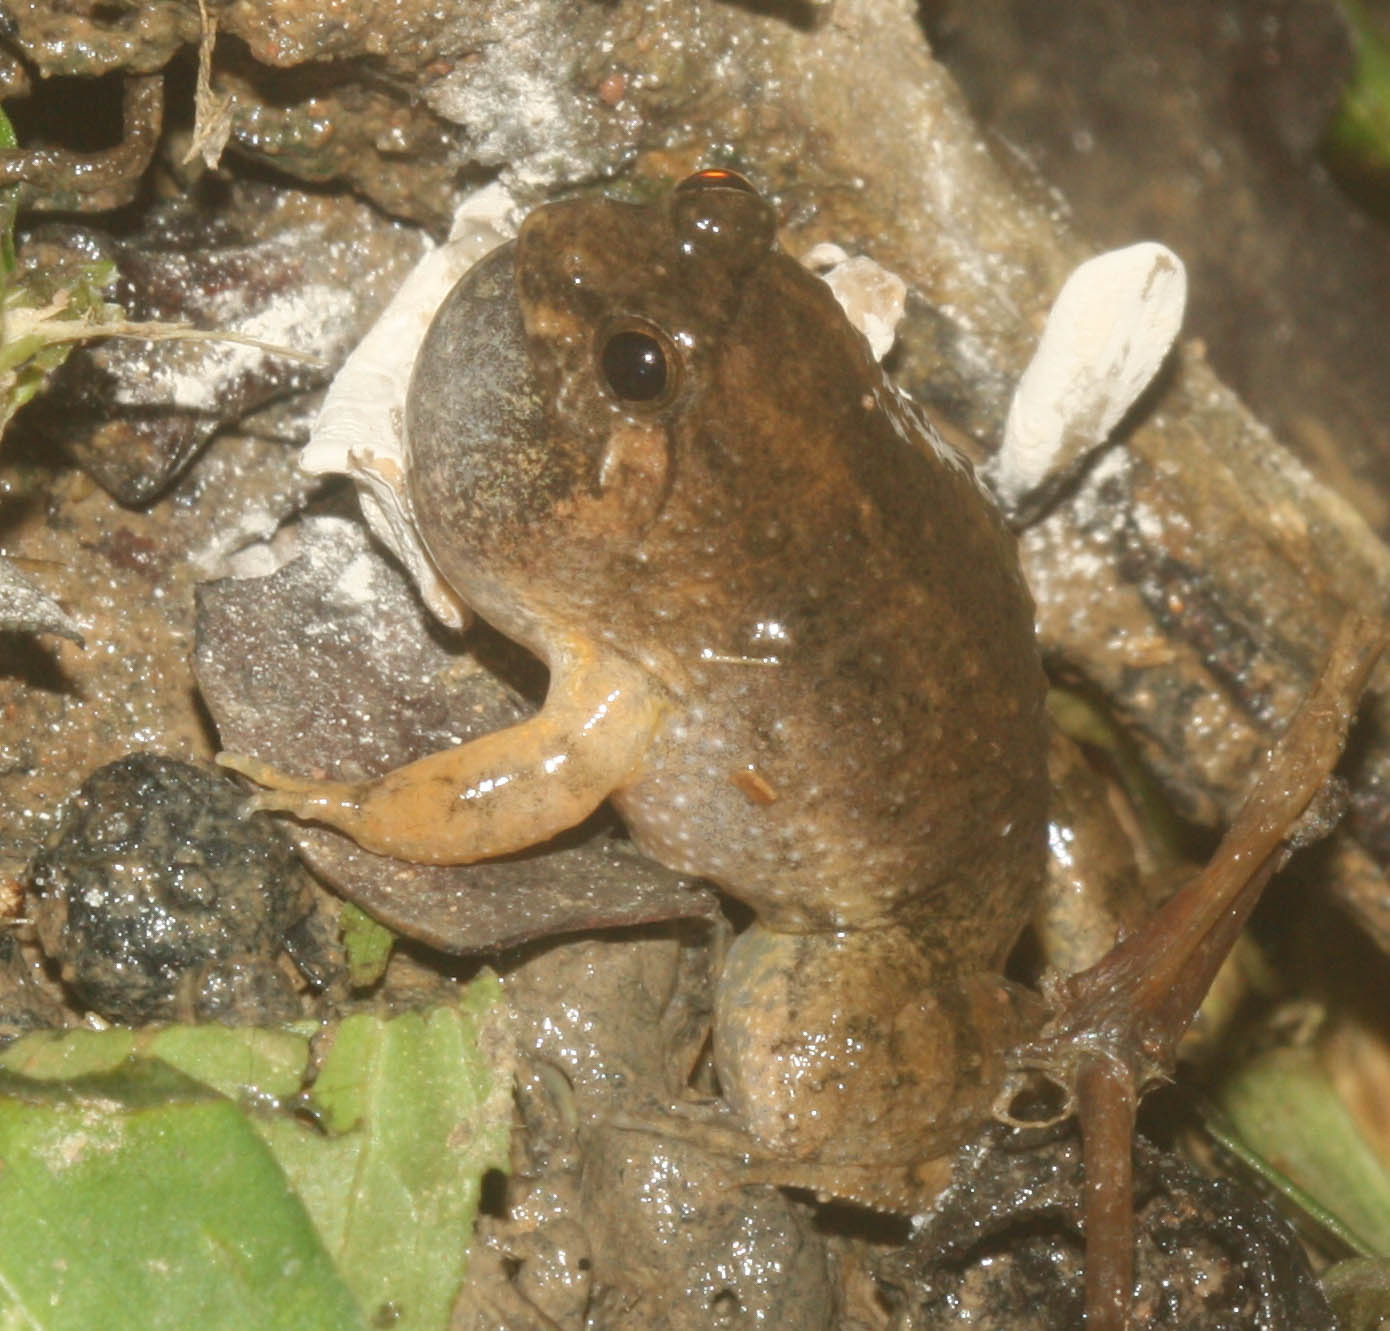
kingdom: Animalia
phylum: Chordata
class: Amphibia
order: Anura
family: Dicroglossidae
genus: Occidozyga
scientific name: Occidozyga martensii
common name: Marten’s oriental frog/round-tongued floating frog
